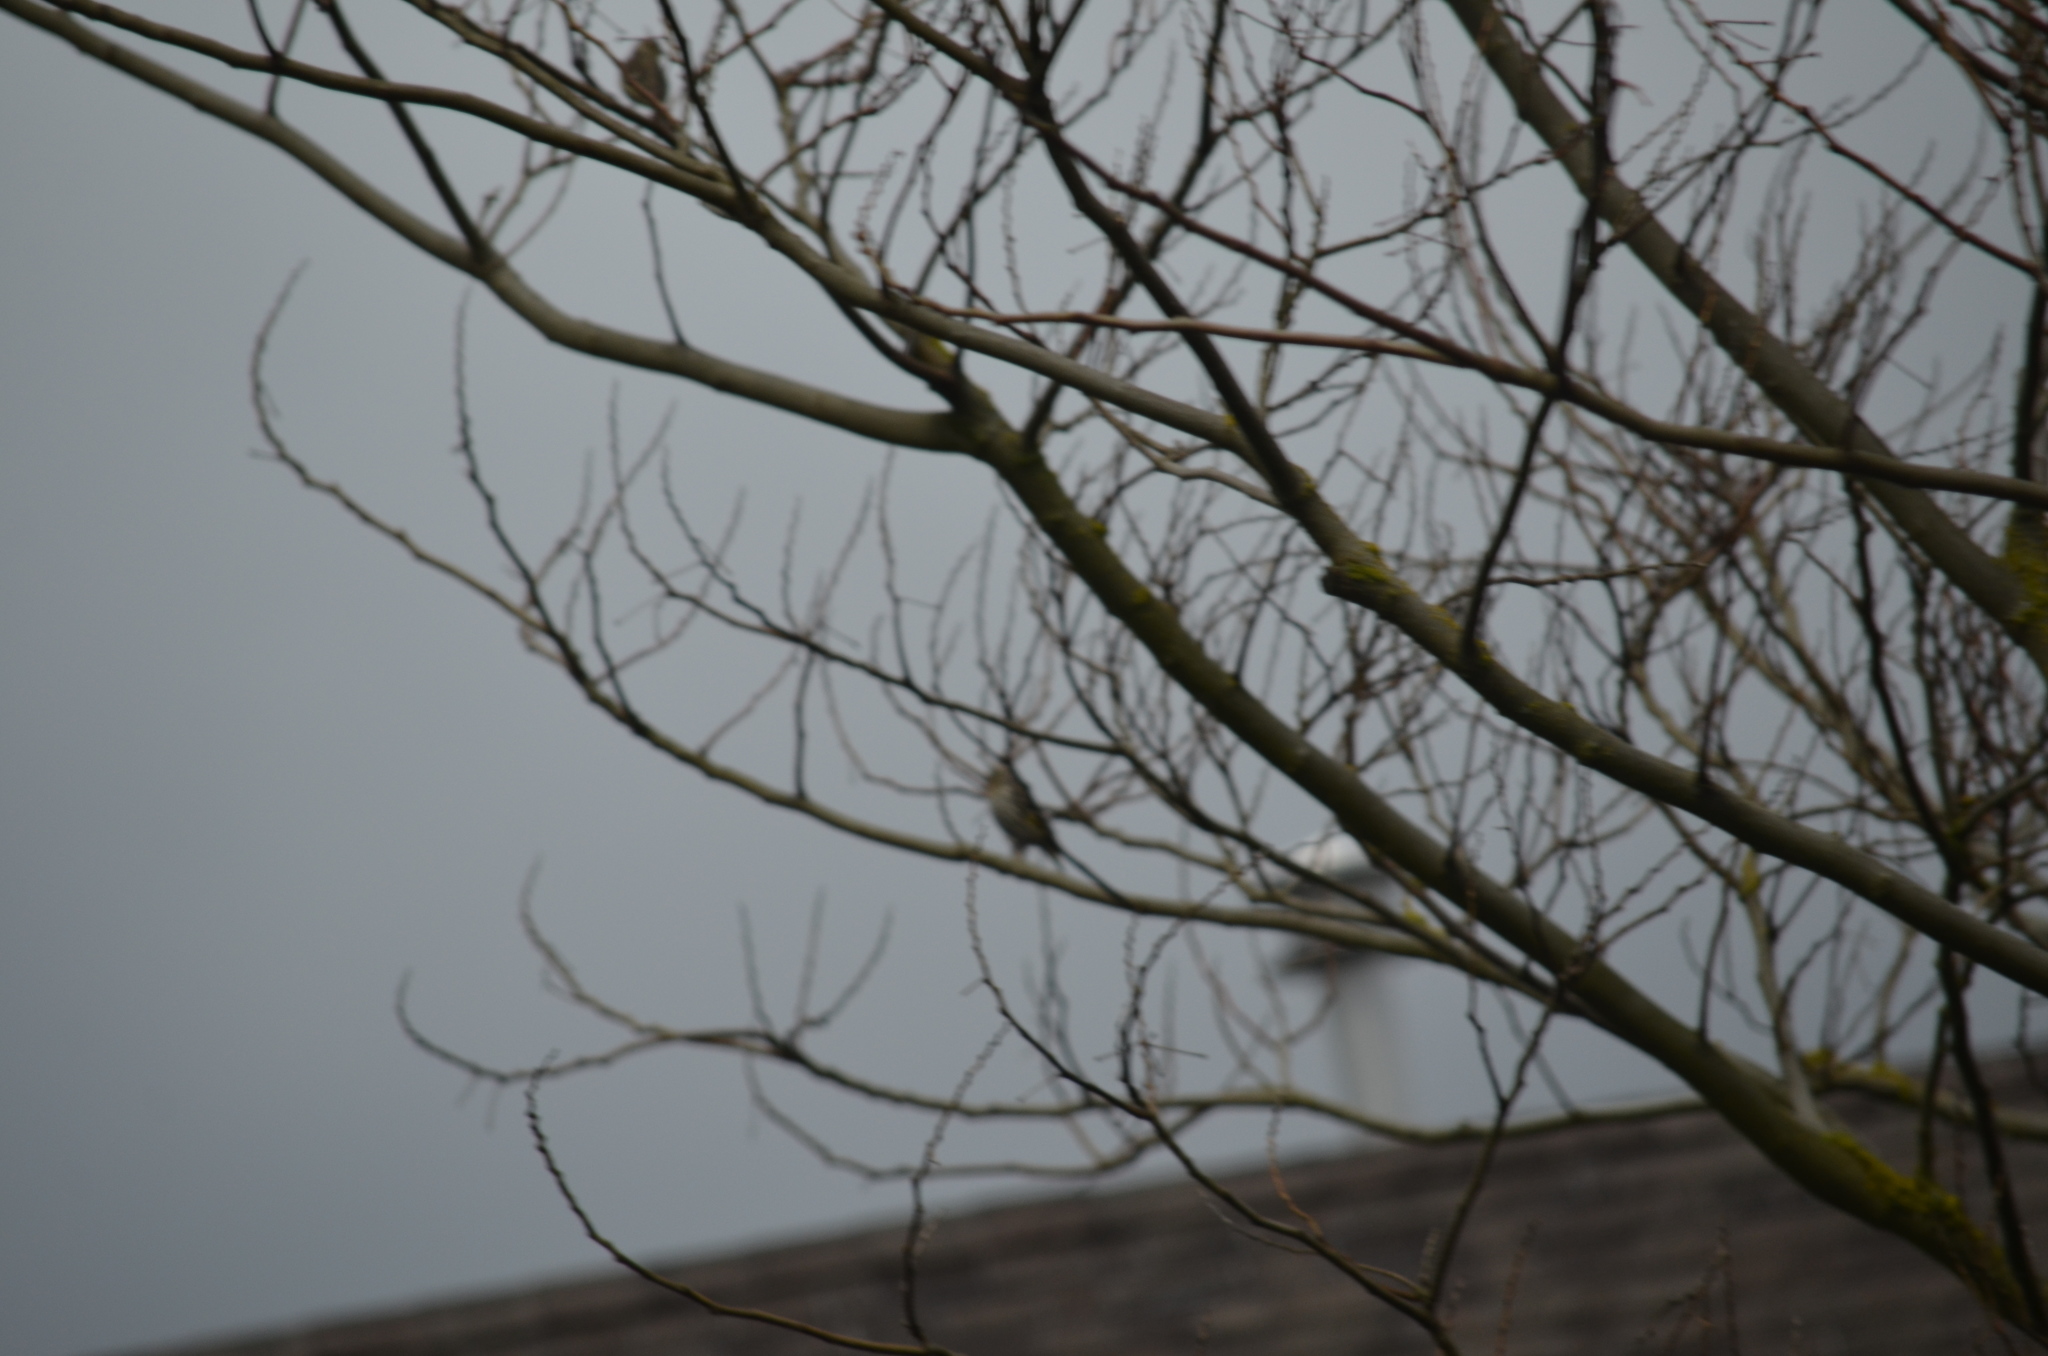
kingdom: Animalia
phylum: Chordata
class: Aves
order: Passeriformes
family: Fringillidae
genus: Spinus
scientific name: Spinus pinus
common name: Pine siskin
